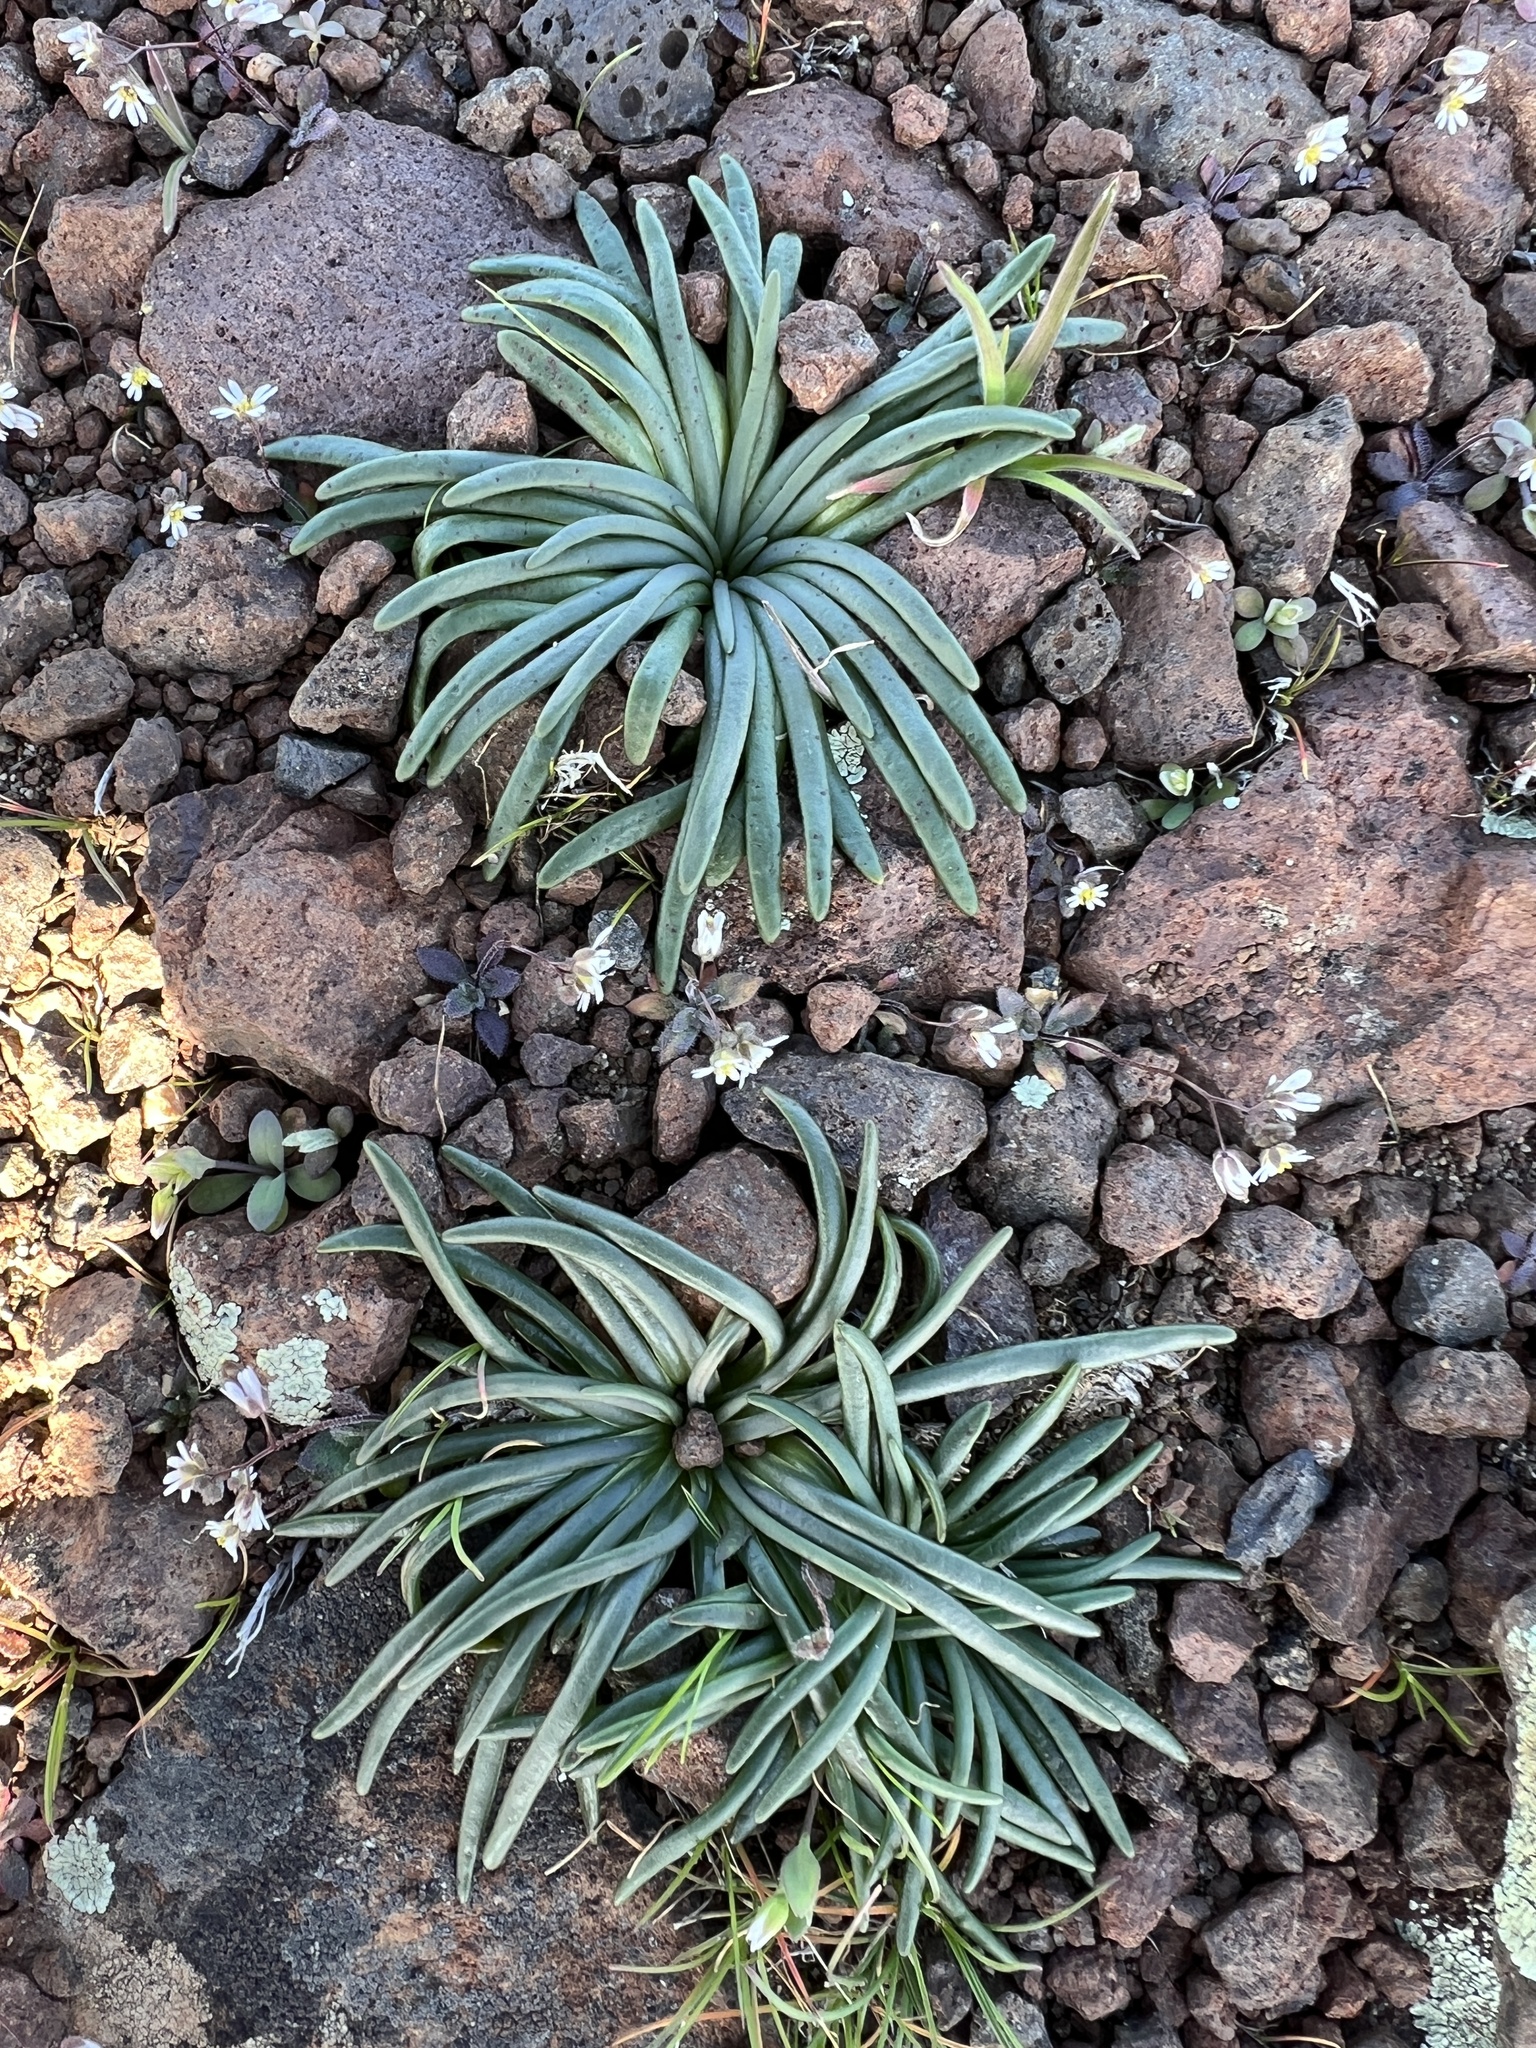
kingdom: Plantae
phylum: Tracheophyta
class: Magnoliopsida
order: Caryophyllales
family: Montiaceae
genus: Lewisia
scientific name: Lewisia rediviva
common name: Bitter-root
